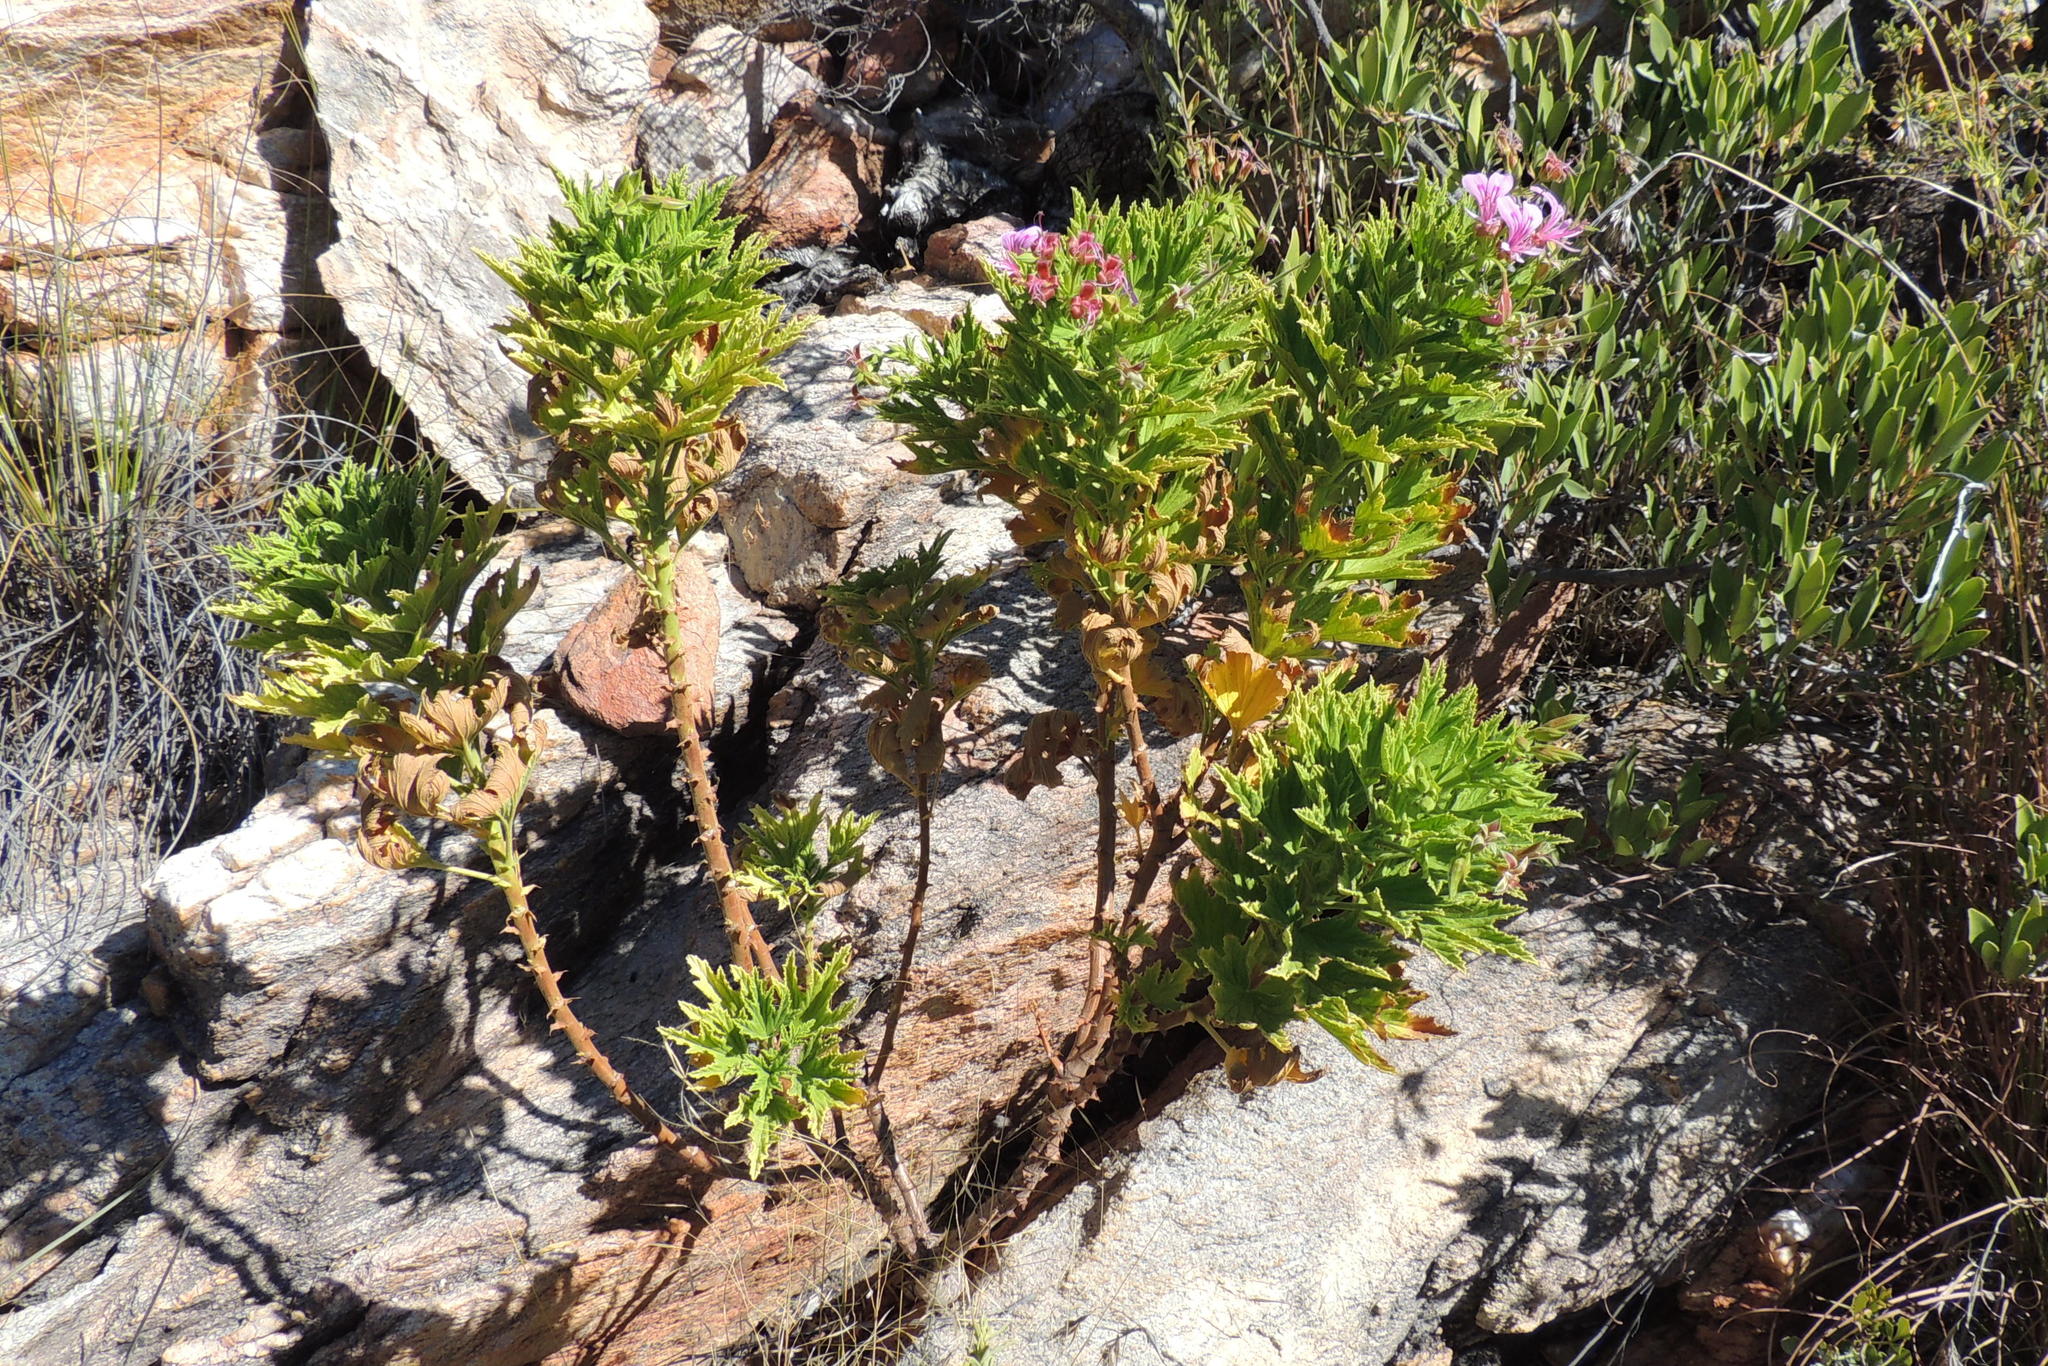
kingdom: Plantae
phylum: Tracheophyta
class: Magnoliopsida
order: Geraniales
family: Geraniaceae
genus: Pelargonium
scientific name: Pelargonium citronellum
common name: Lemon-scent pelargonium
